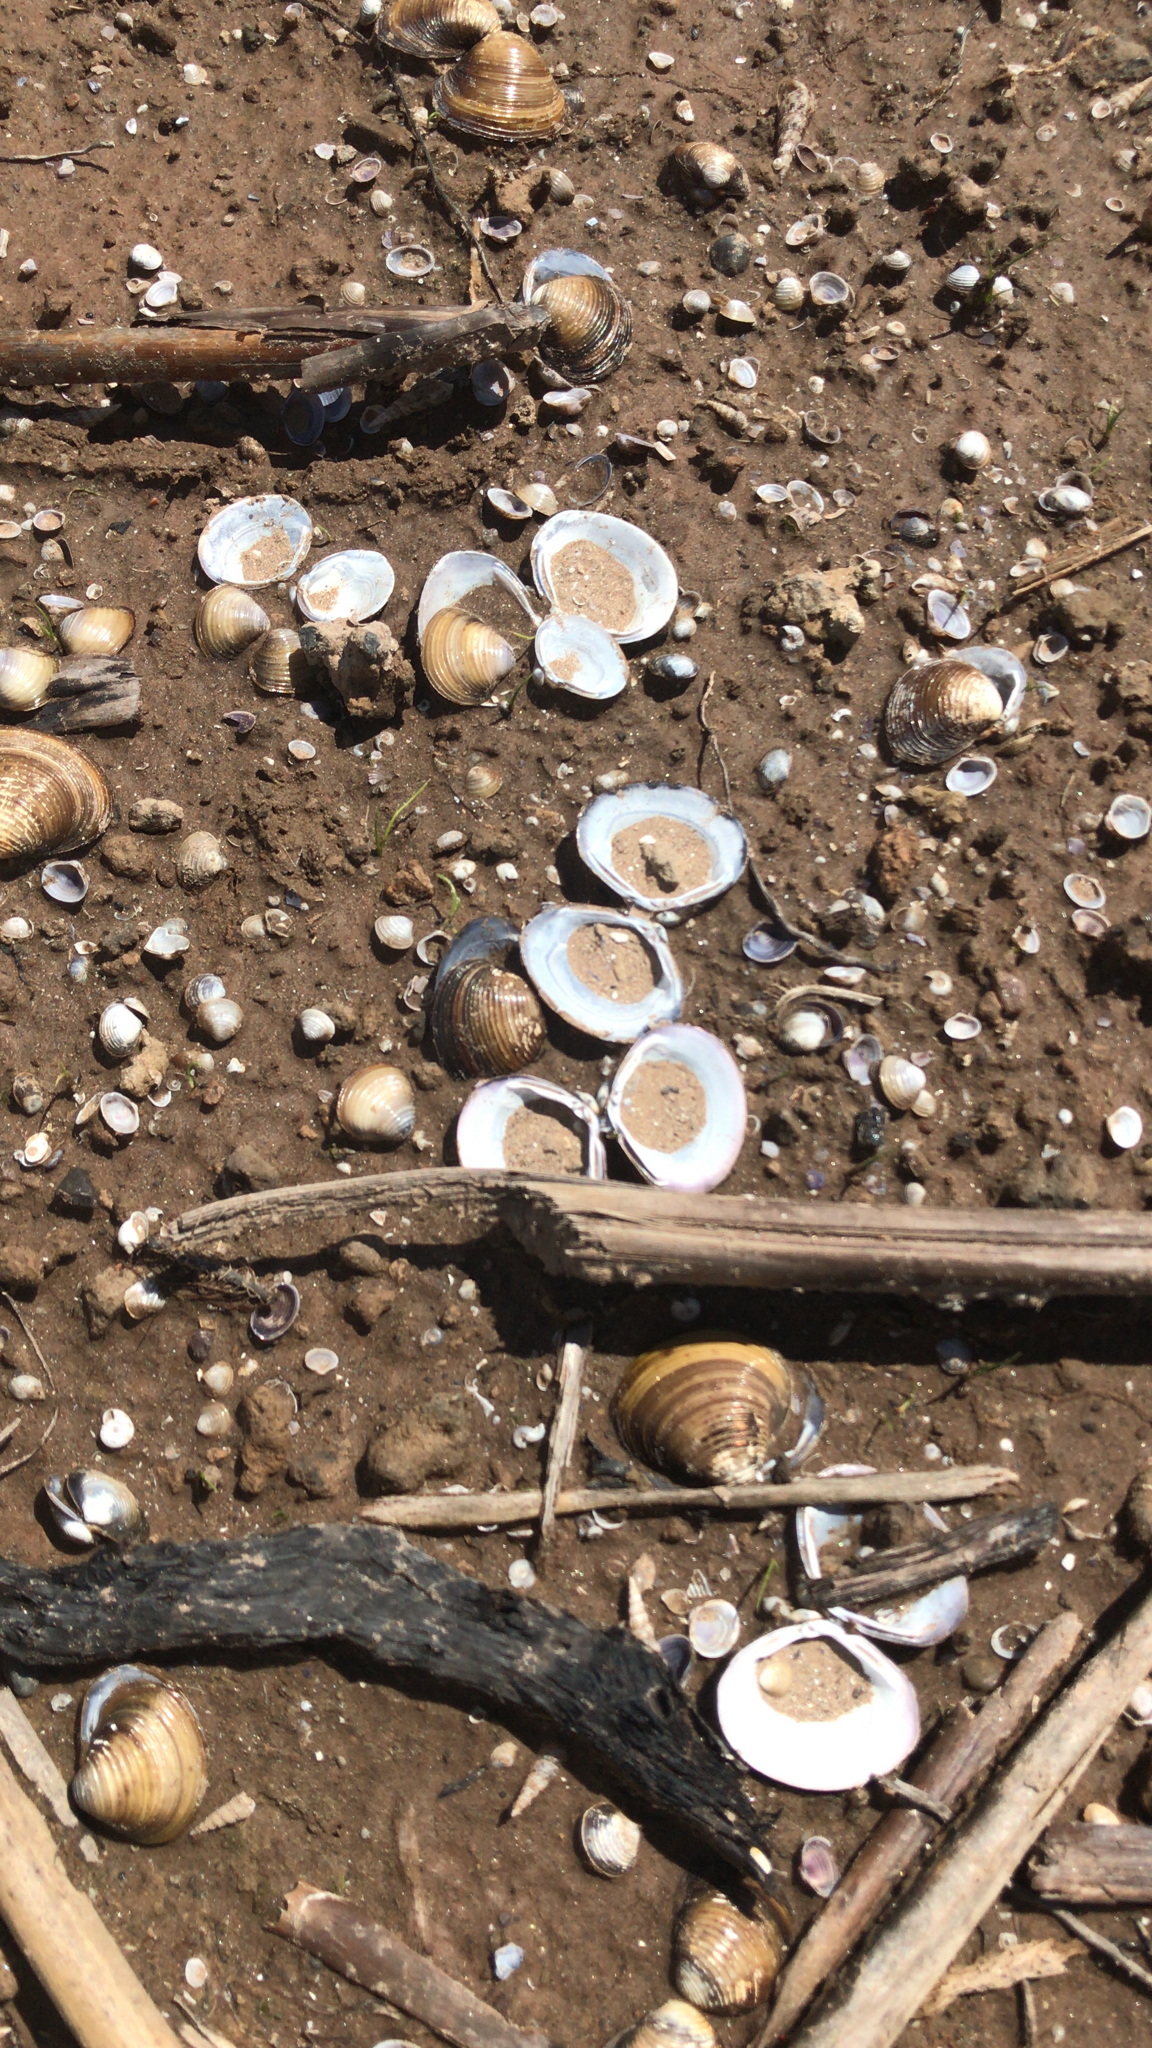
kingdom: Animalia
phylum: Mollusca
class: Bivalvia
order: Venerida
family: Cyrenidae
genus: Corbicula
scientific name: Corbicula fluminea
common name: Asian clam
